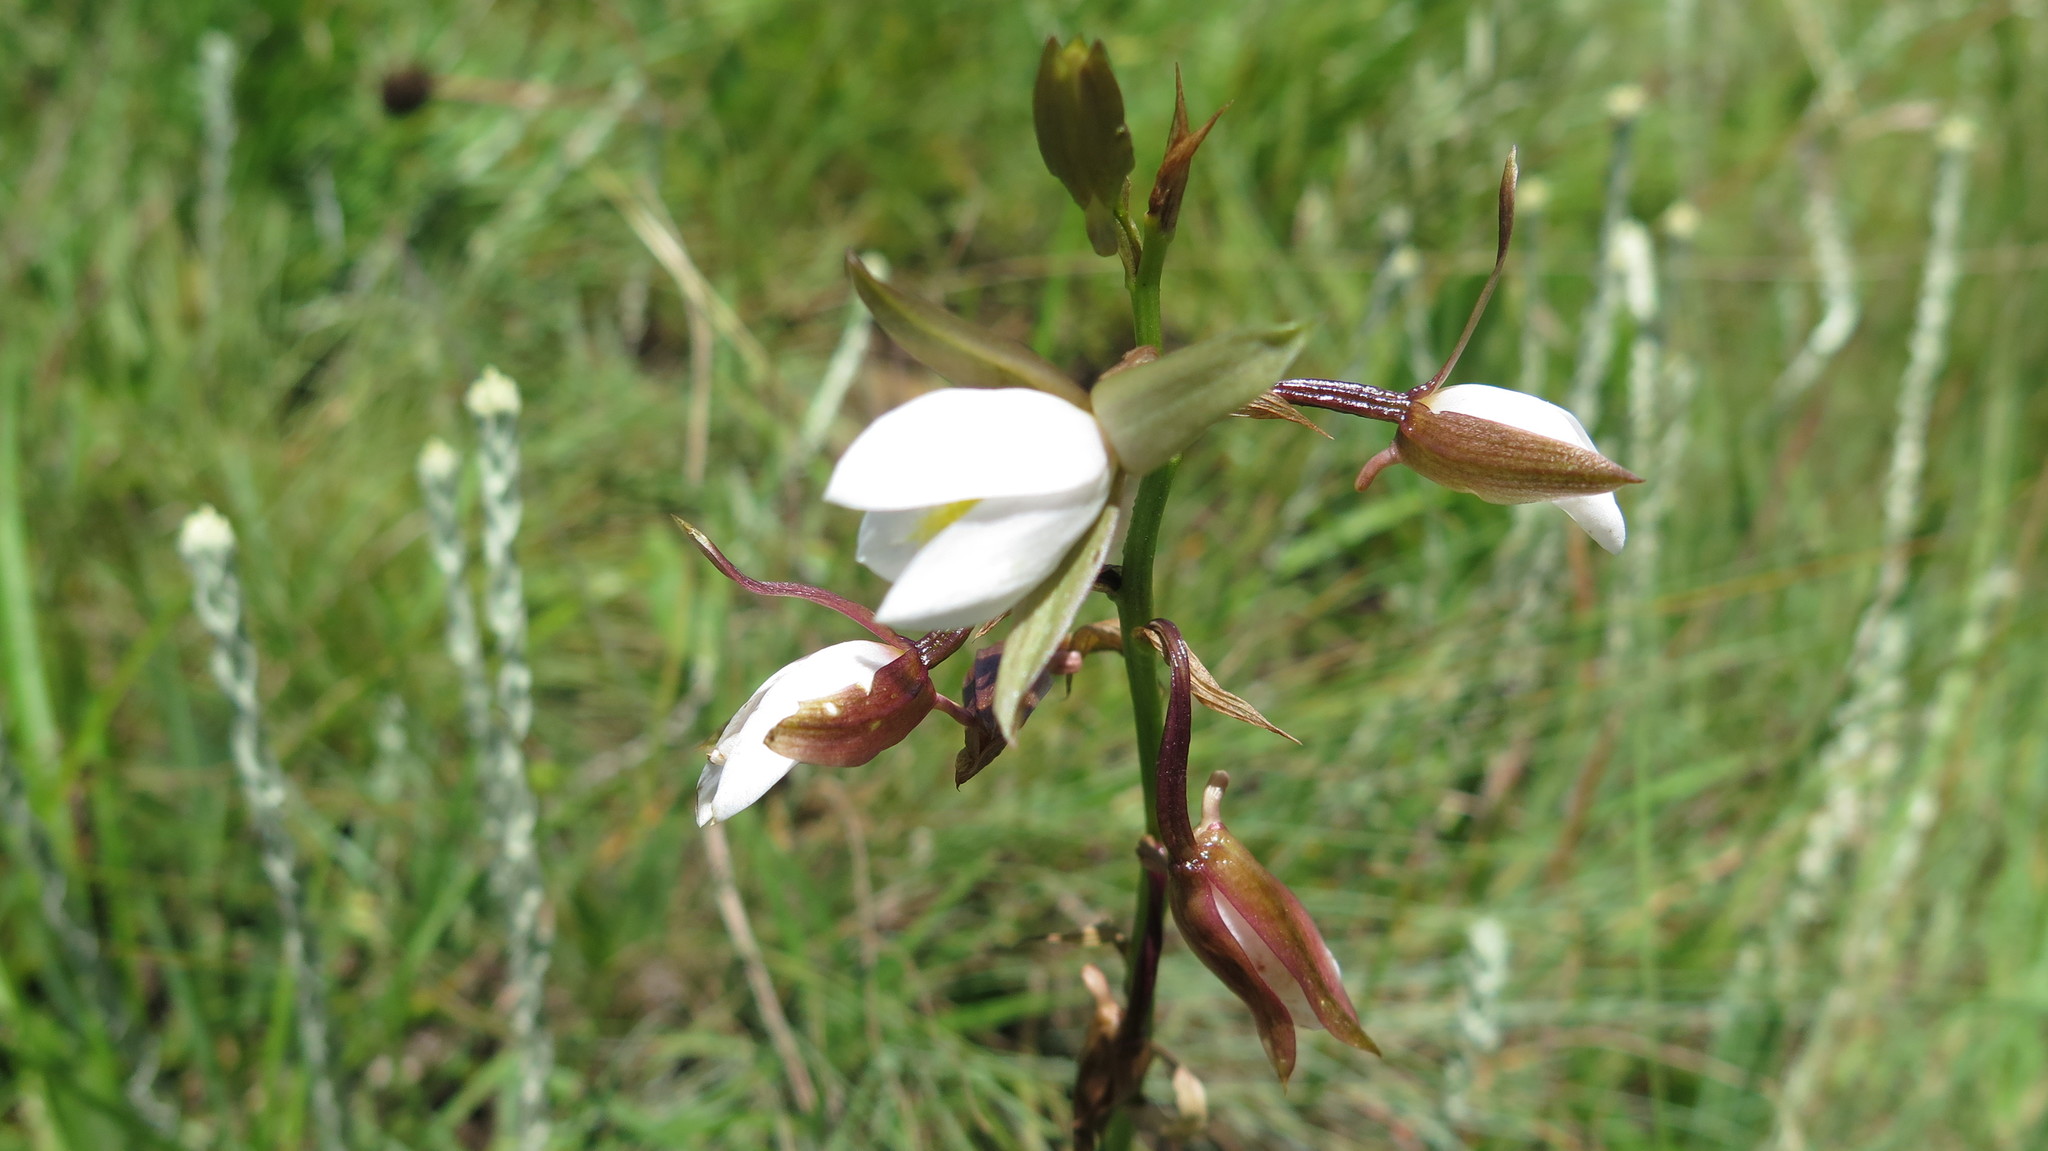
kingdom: Plantae
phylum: Tracheophyta
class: Liliopsida
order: Asparagales
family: Orchidaceae
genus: Eulophia
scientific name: Eulophia ovalis
